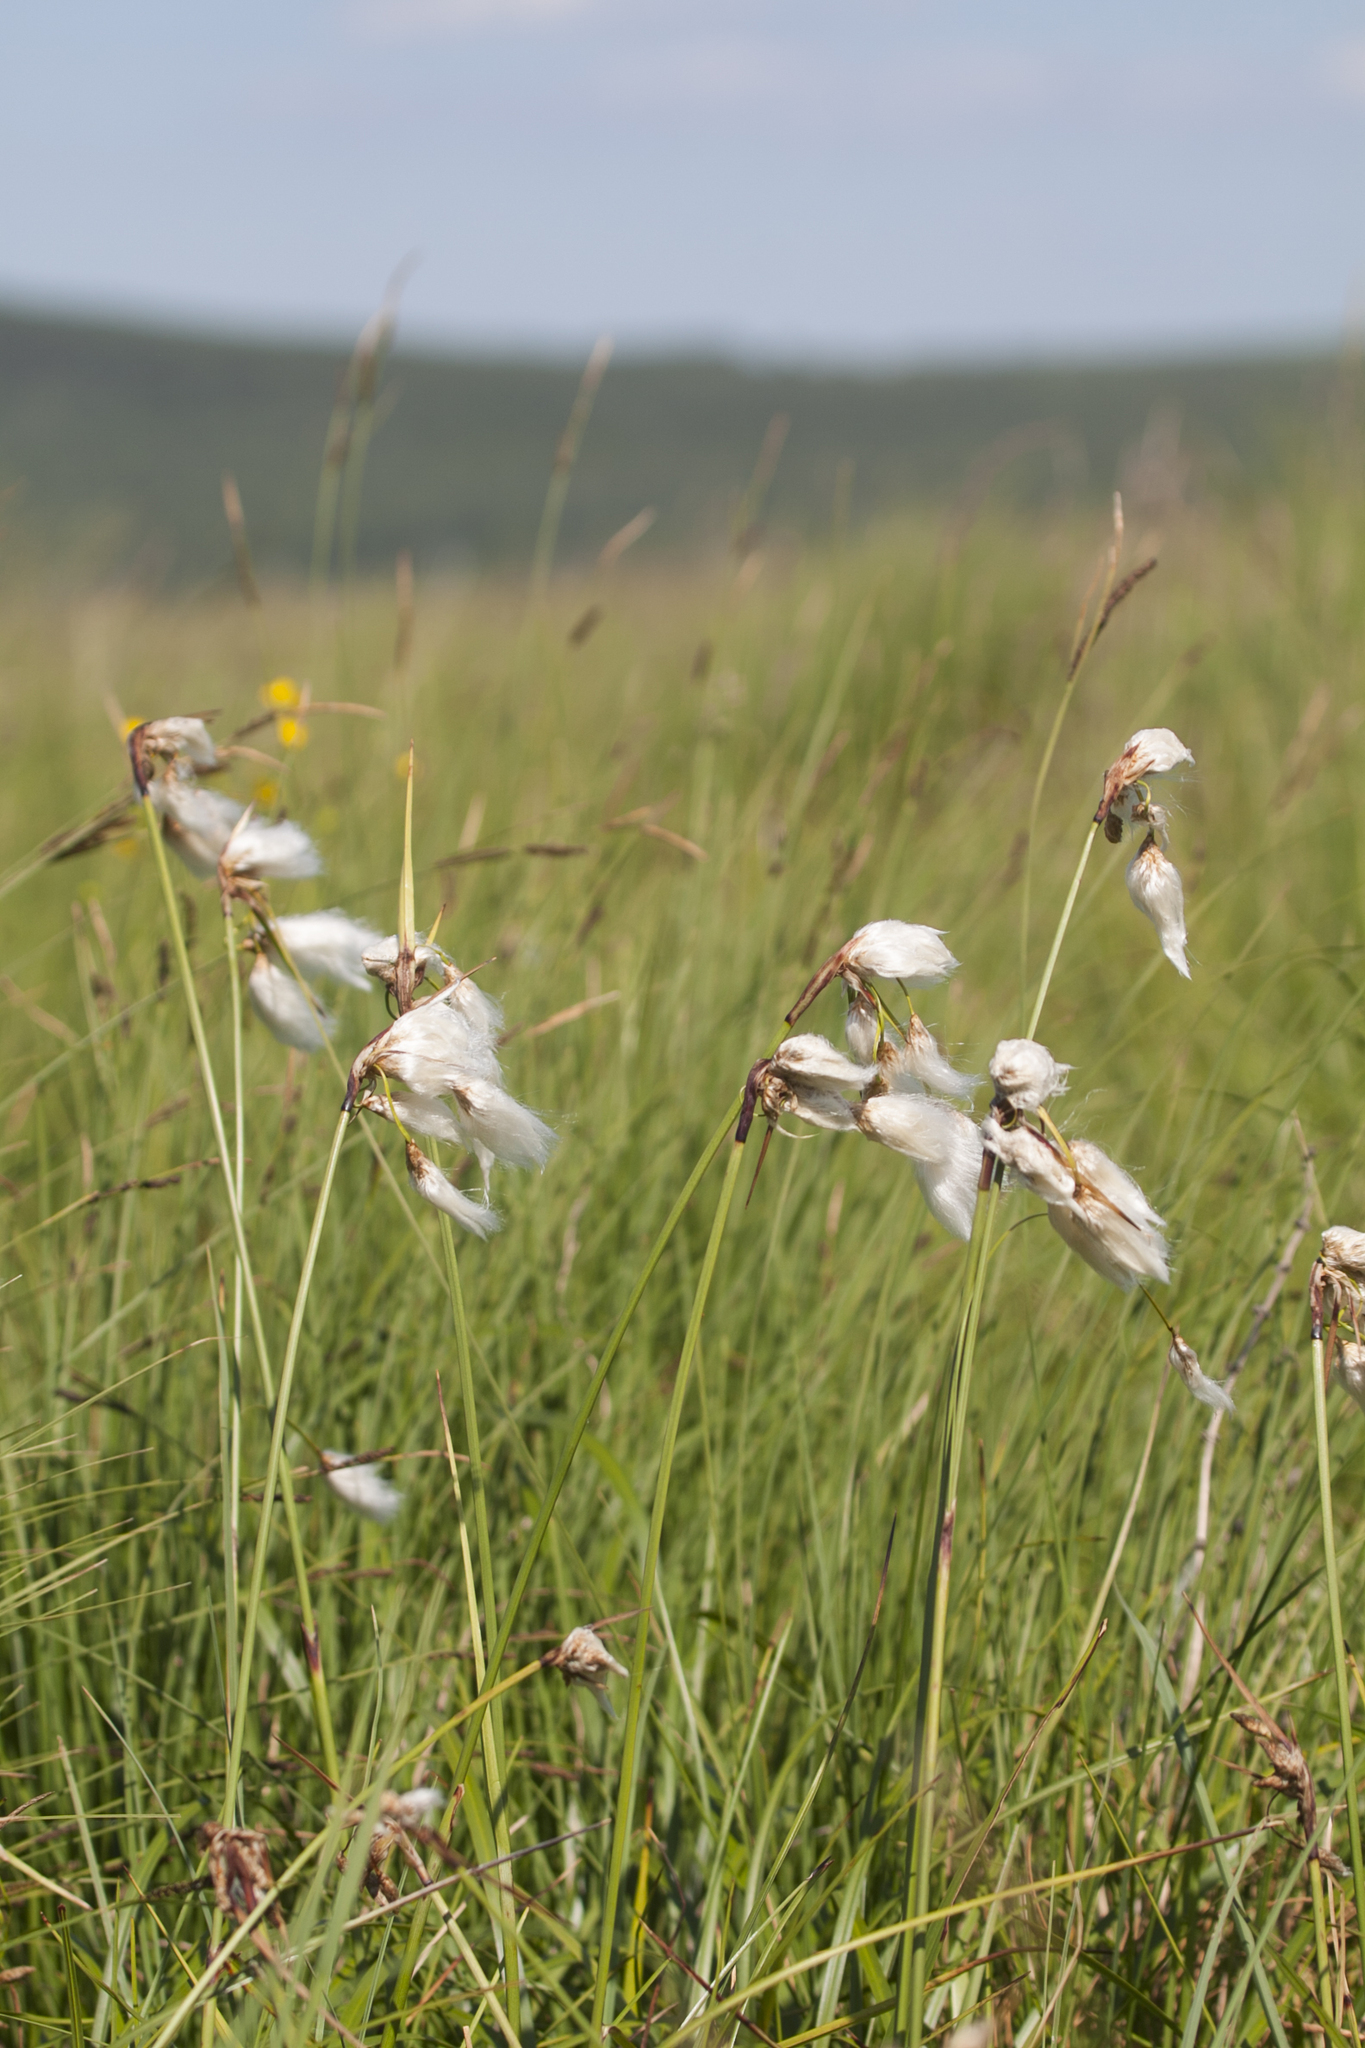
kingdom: Plantae
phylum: Tracheophyta
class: Liliopsida
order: Poales
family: Cyperaceae
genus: Eriophorum
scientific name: Eriophorum angustifolium
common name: Common cottongrass
